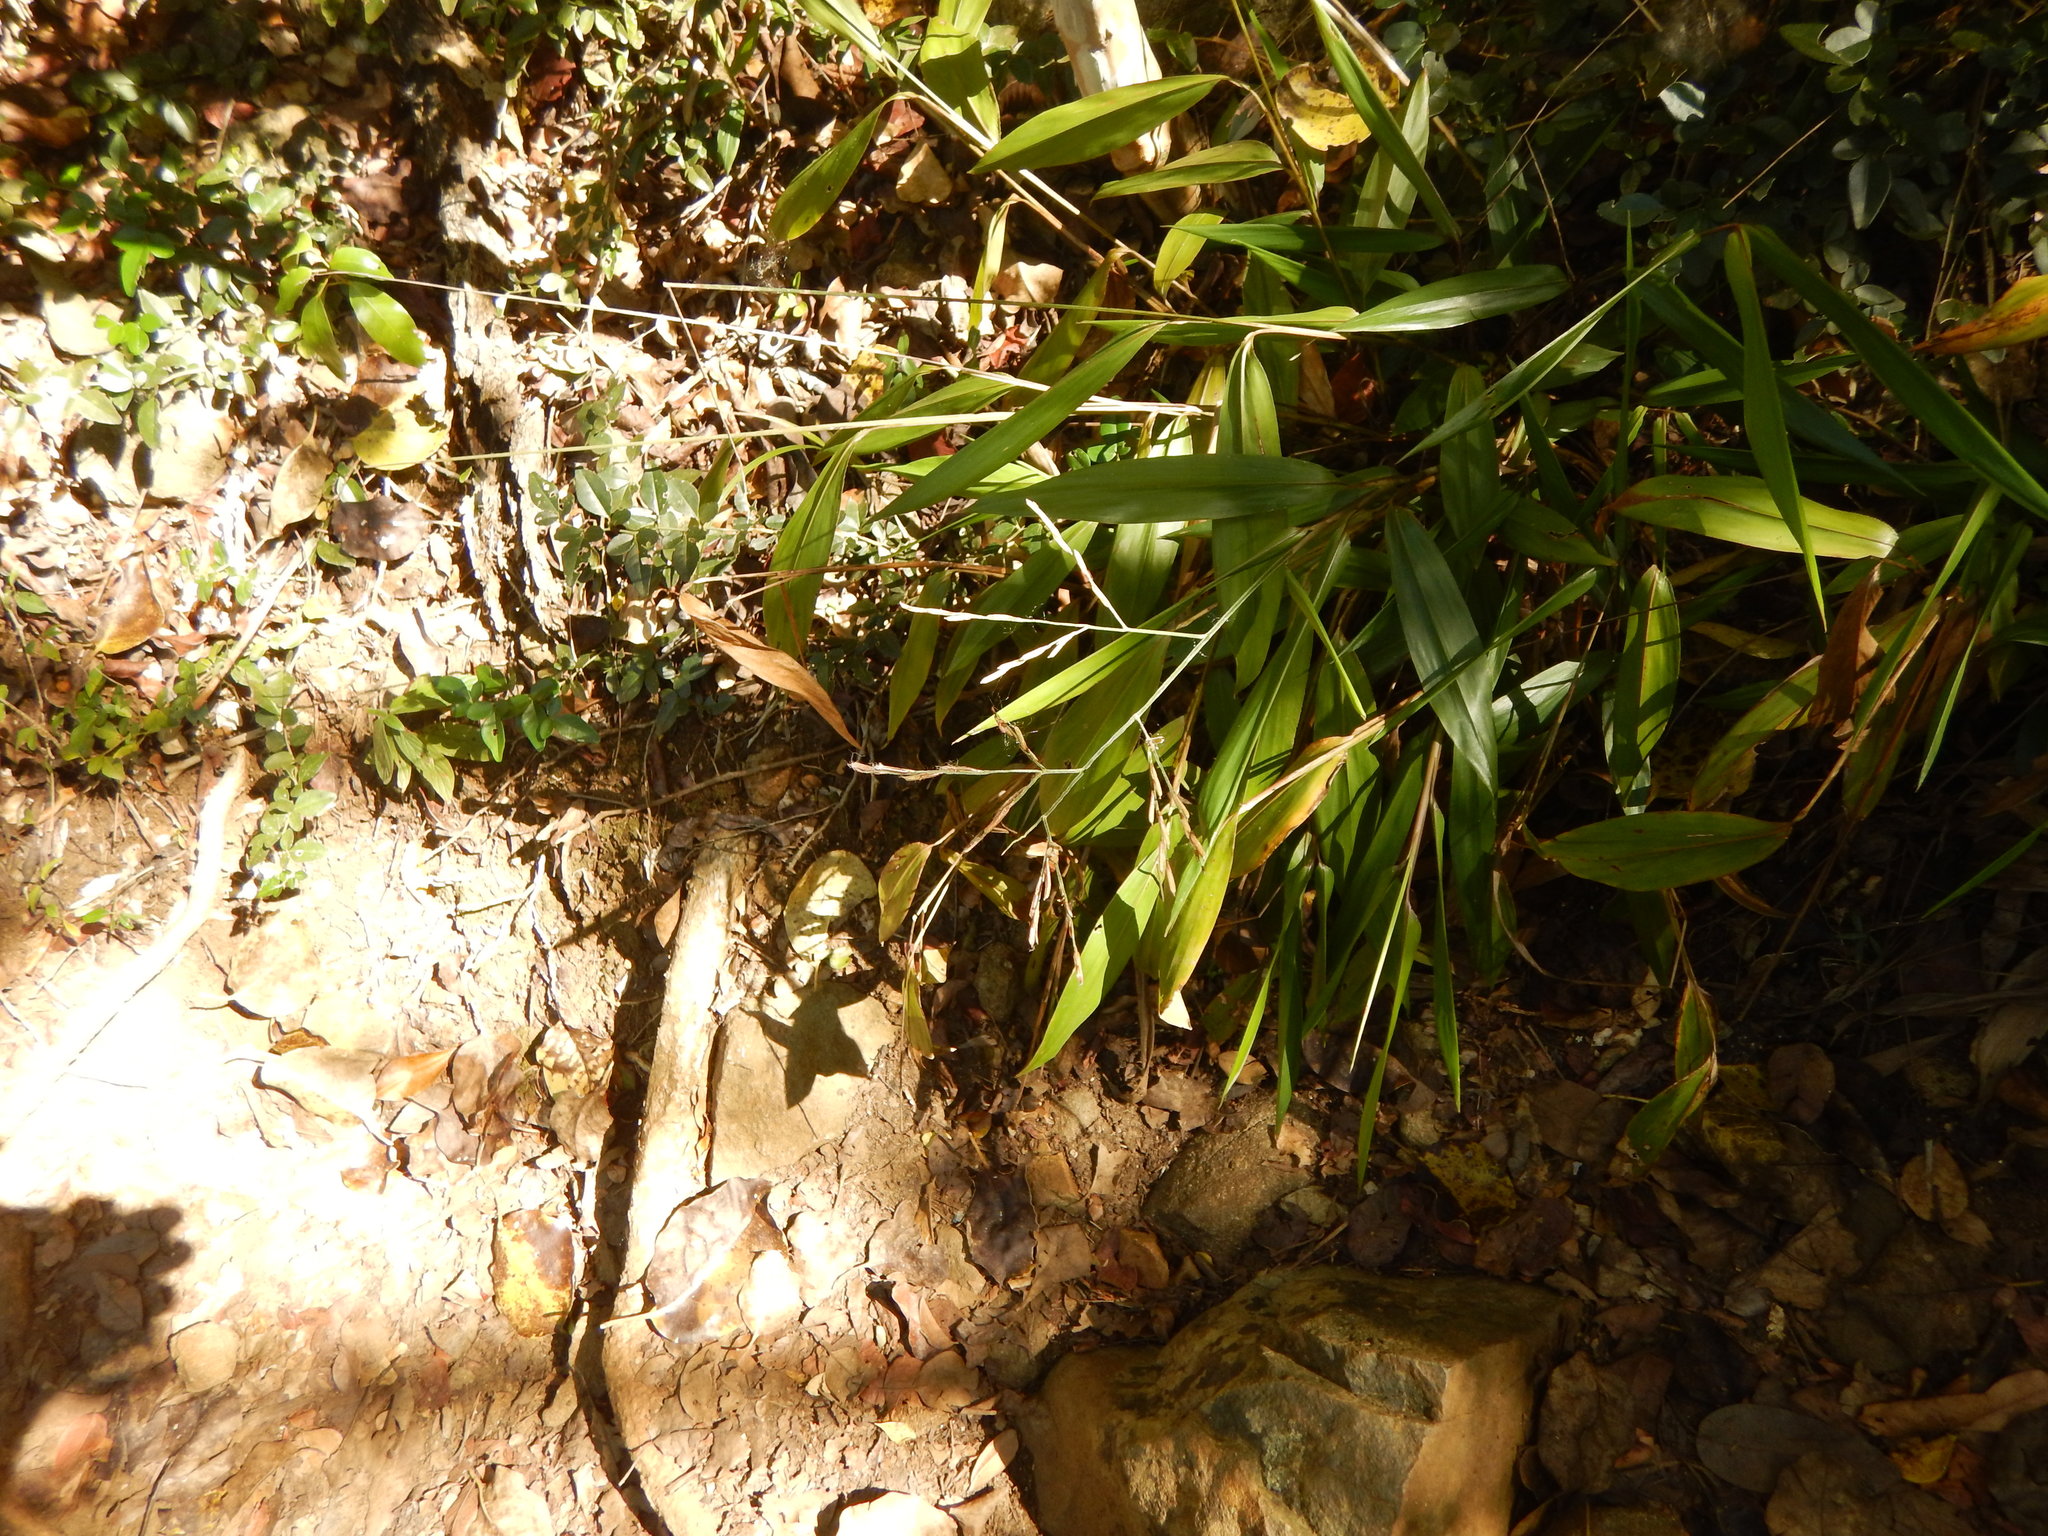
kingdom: Plantae
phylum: Tracheophyta
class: Liliopsida
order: Poales
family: Poaceae
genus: Pharus
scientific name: Pharus lappulaceus
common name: Creeping leafstalk grass
